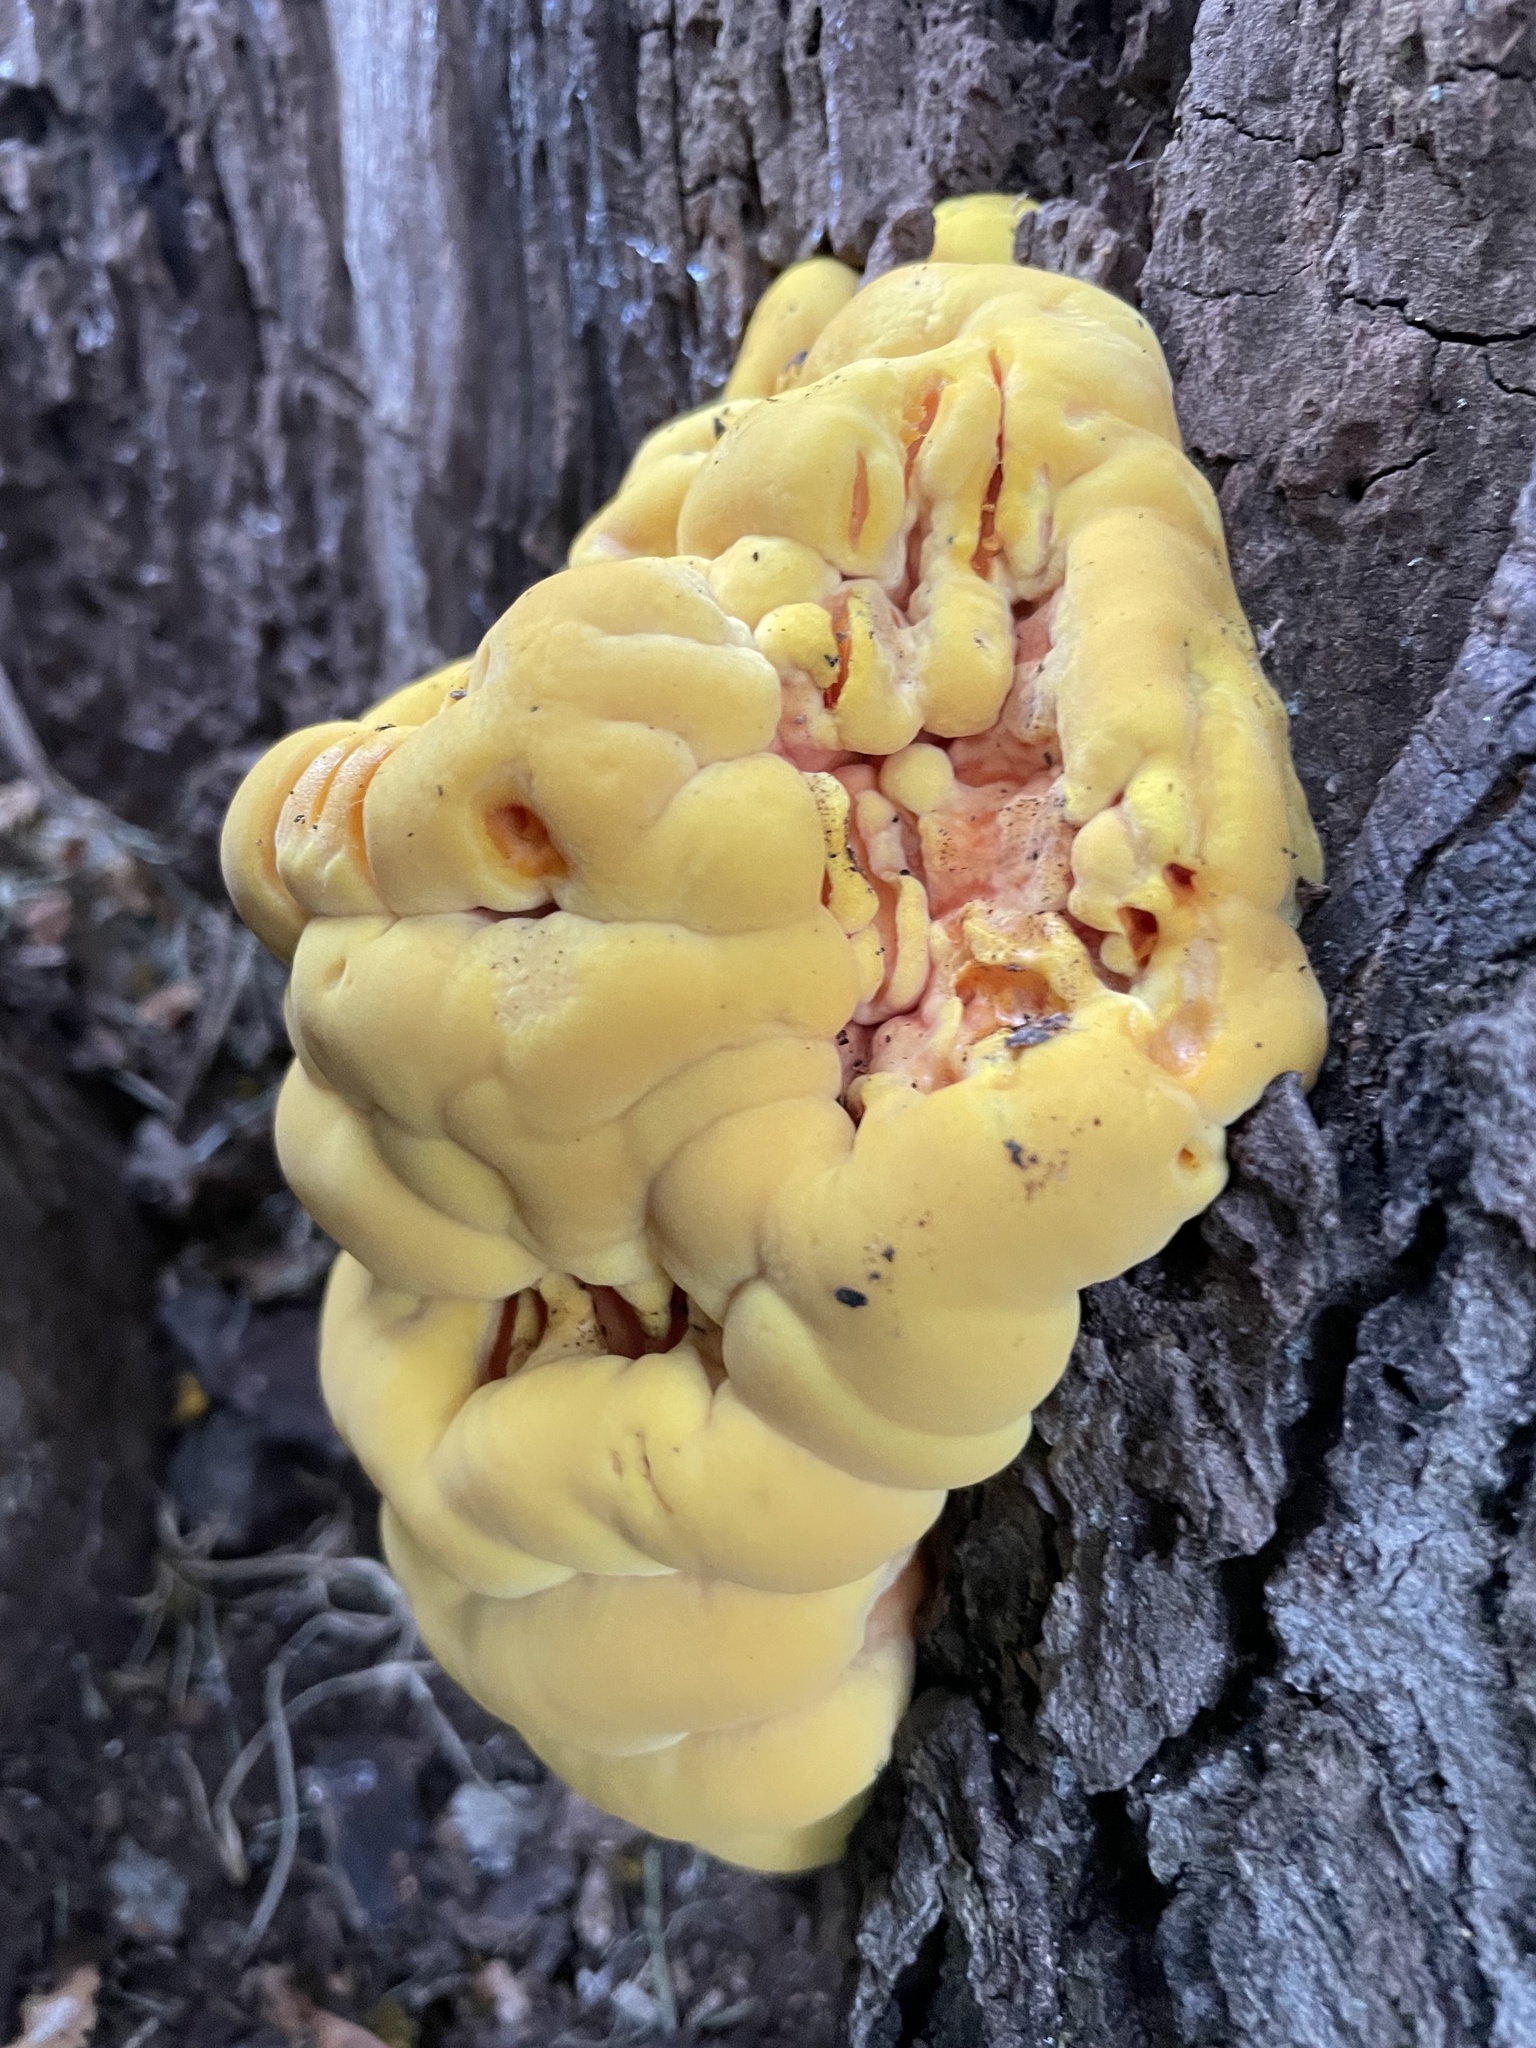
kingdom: Fungi
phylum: Basidiomycota
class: Agaricomycetes
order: Polyporales
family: Laetiporaceae
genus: Laetiporus
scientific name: Laetiporus sulphureus
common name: Chicken of the woods
